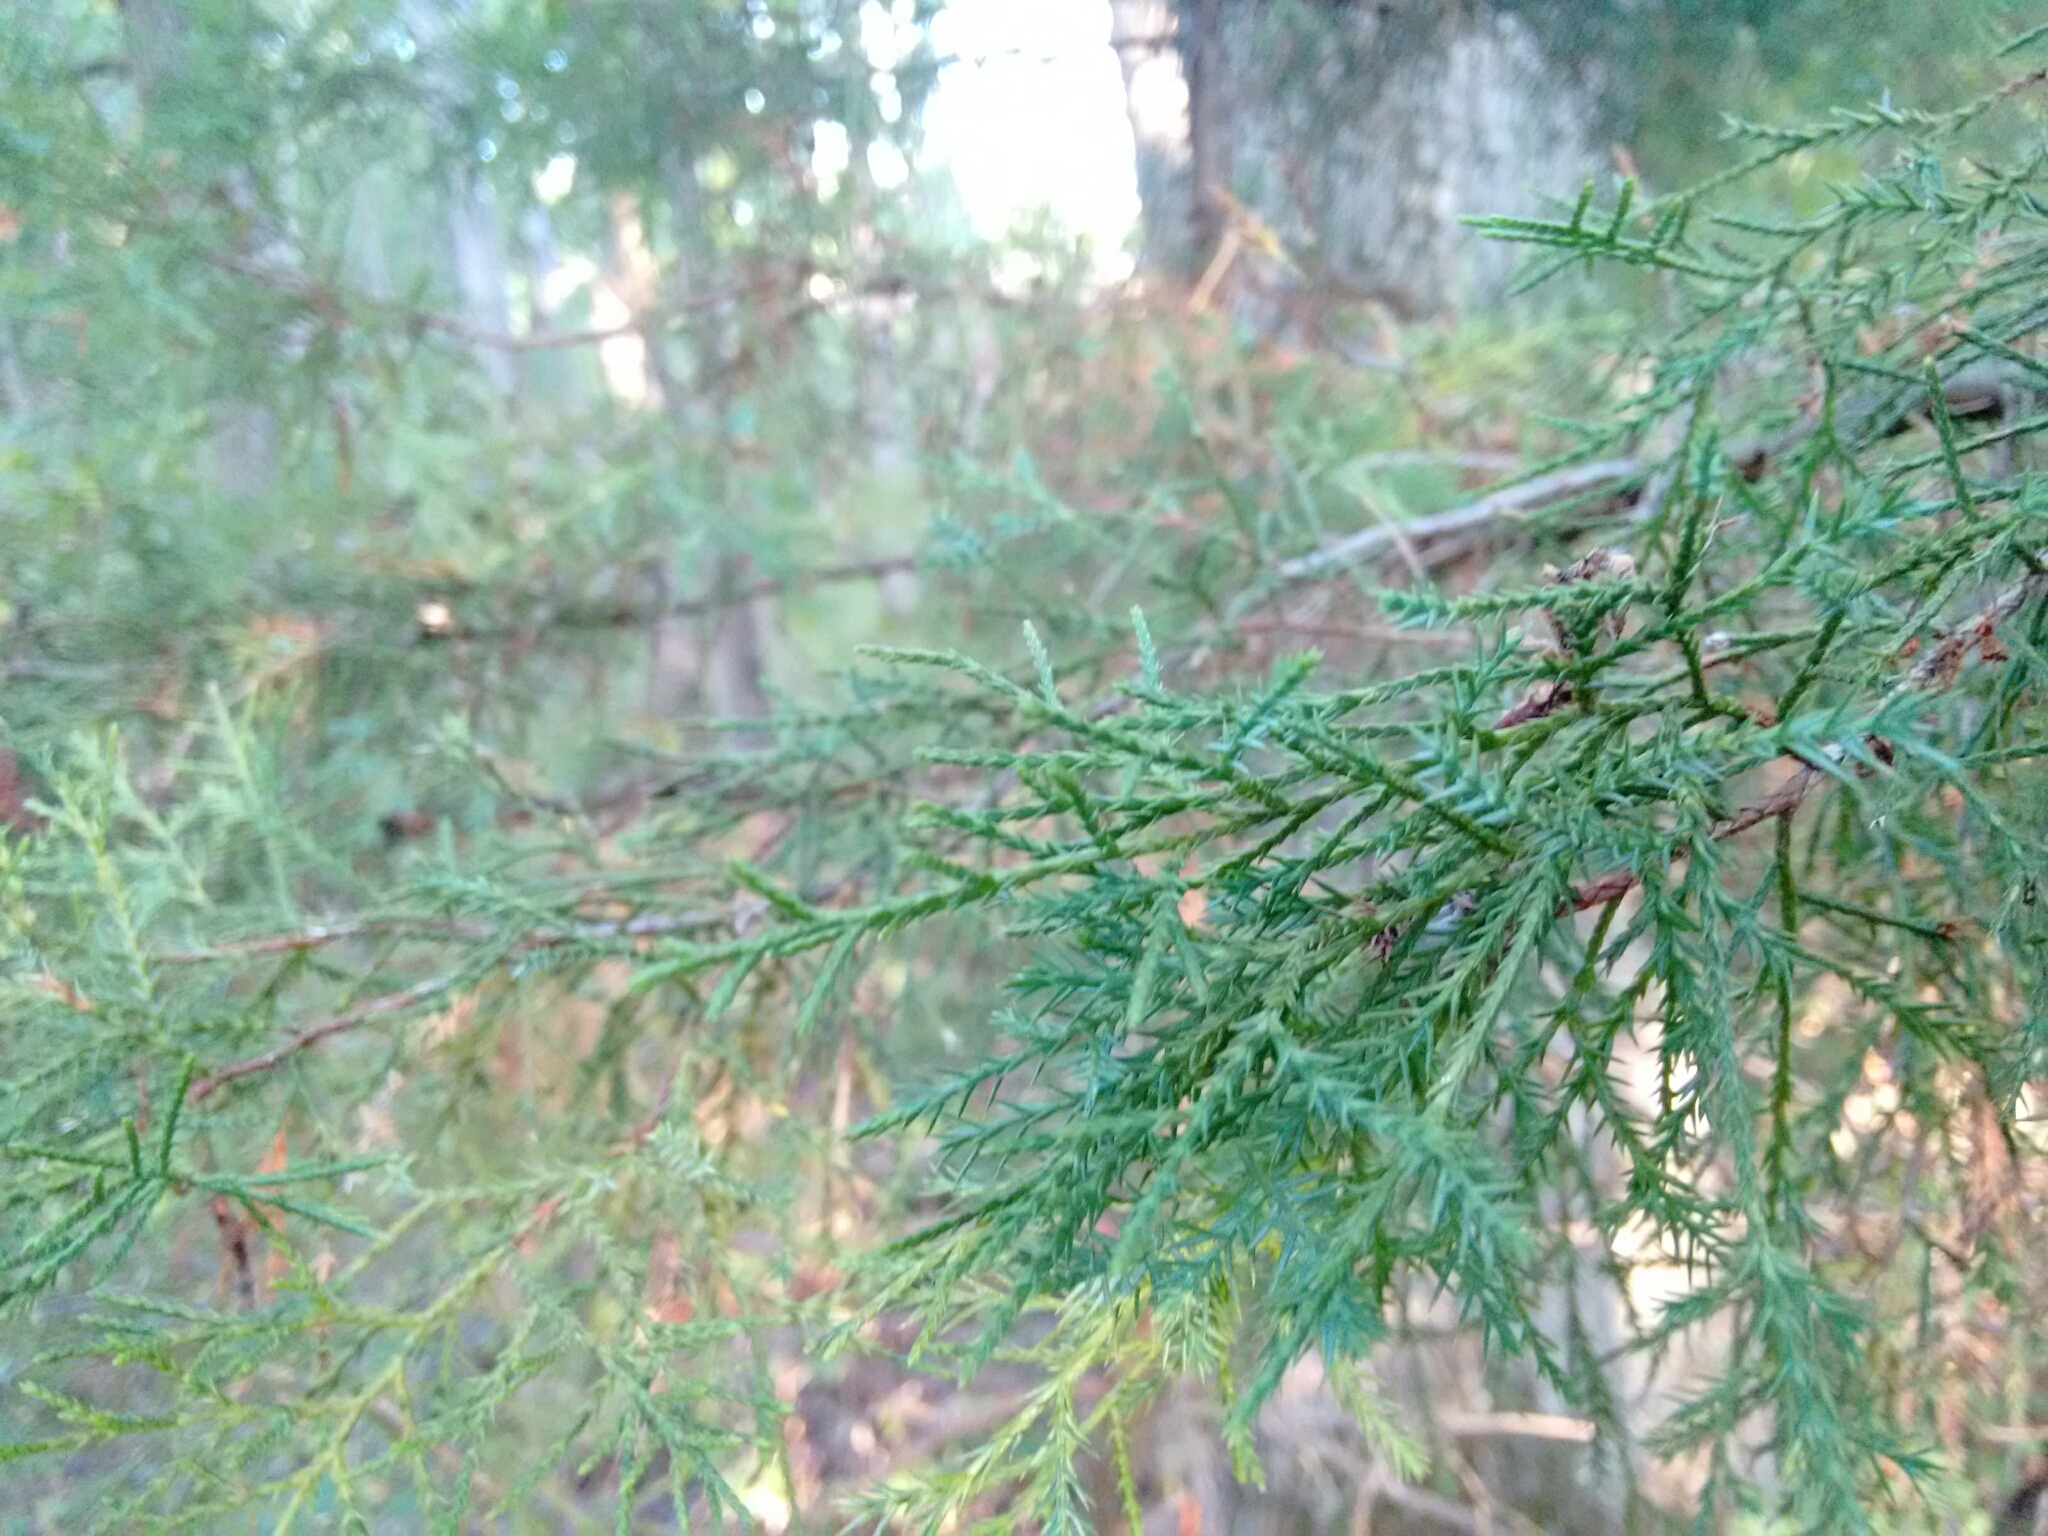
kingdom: Plantae
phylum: Tracheophyta
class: Pinopsida
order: Pinales
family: Cupressaceae
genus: Juniperus
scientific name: Juniperus virginiana
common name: Red juniper
